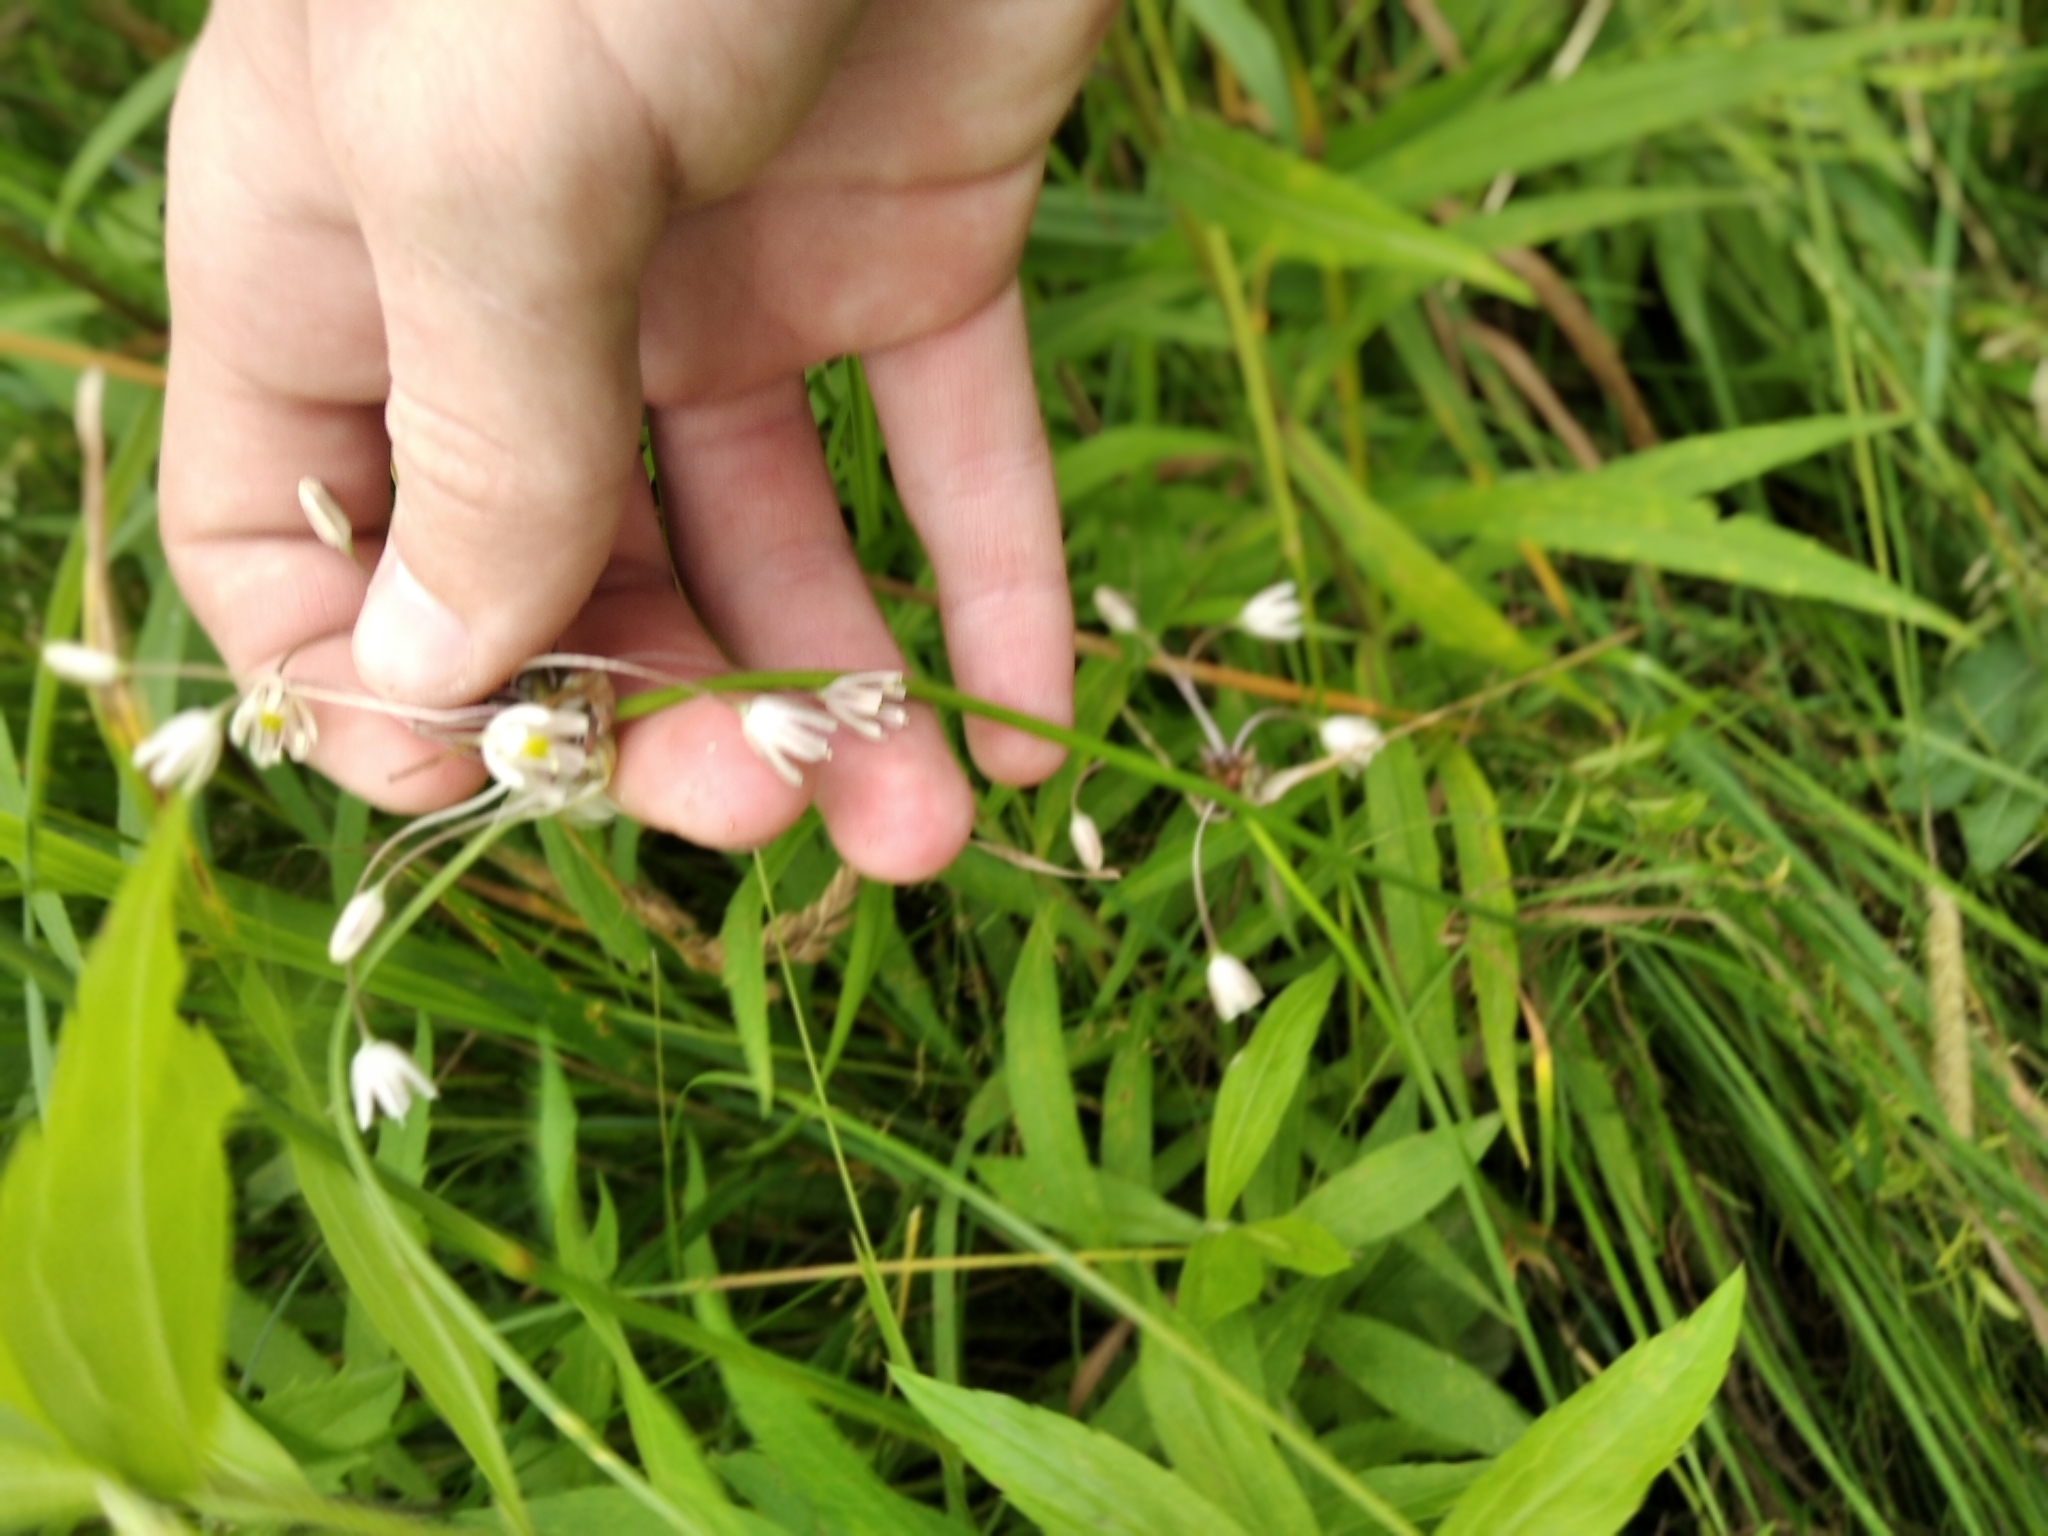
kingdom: Plantae
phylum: Tracheophyta
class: Liliopsida
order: Asparagales
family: Amaryllidaceae
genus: Allium
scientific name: Allium oleraceum
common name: Field garlic
